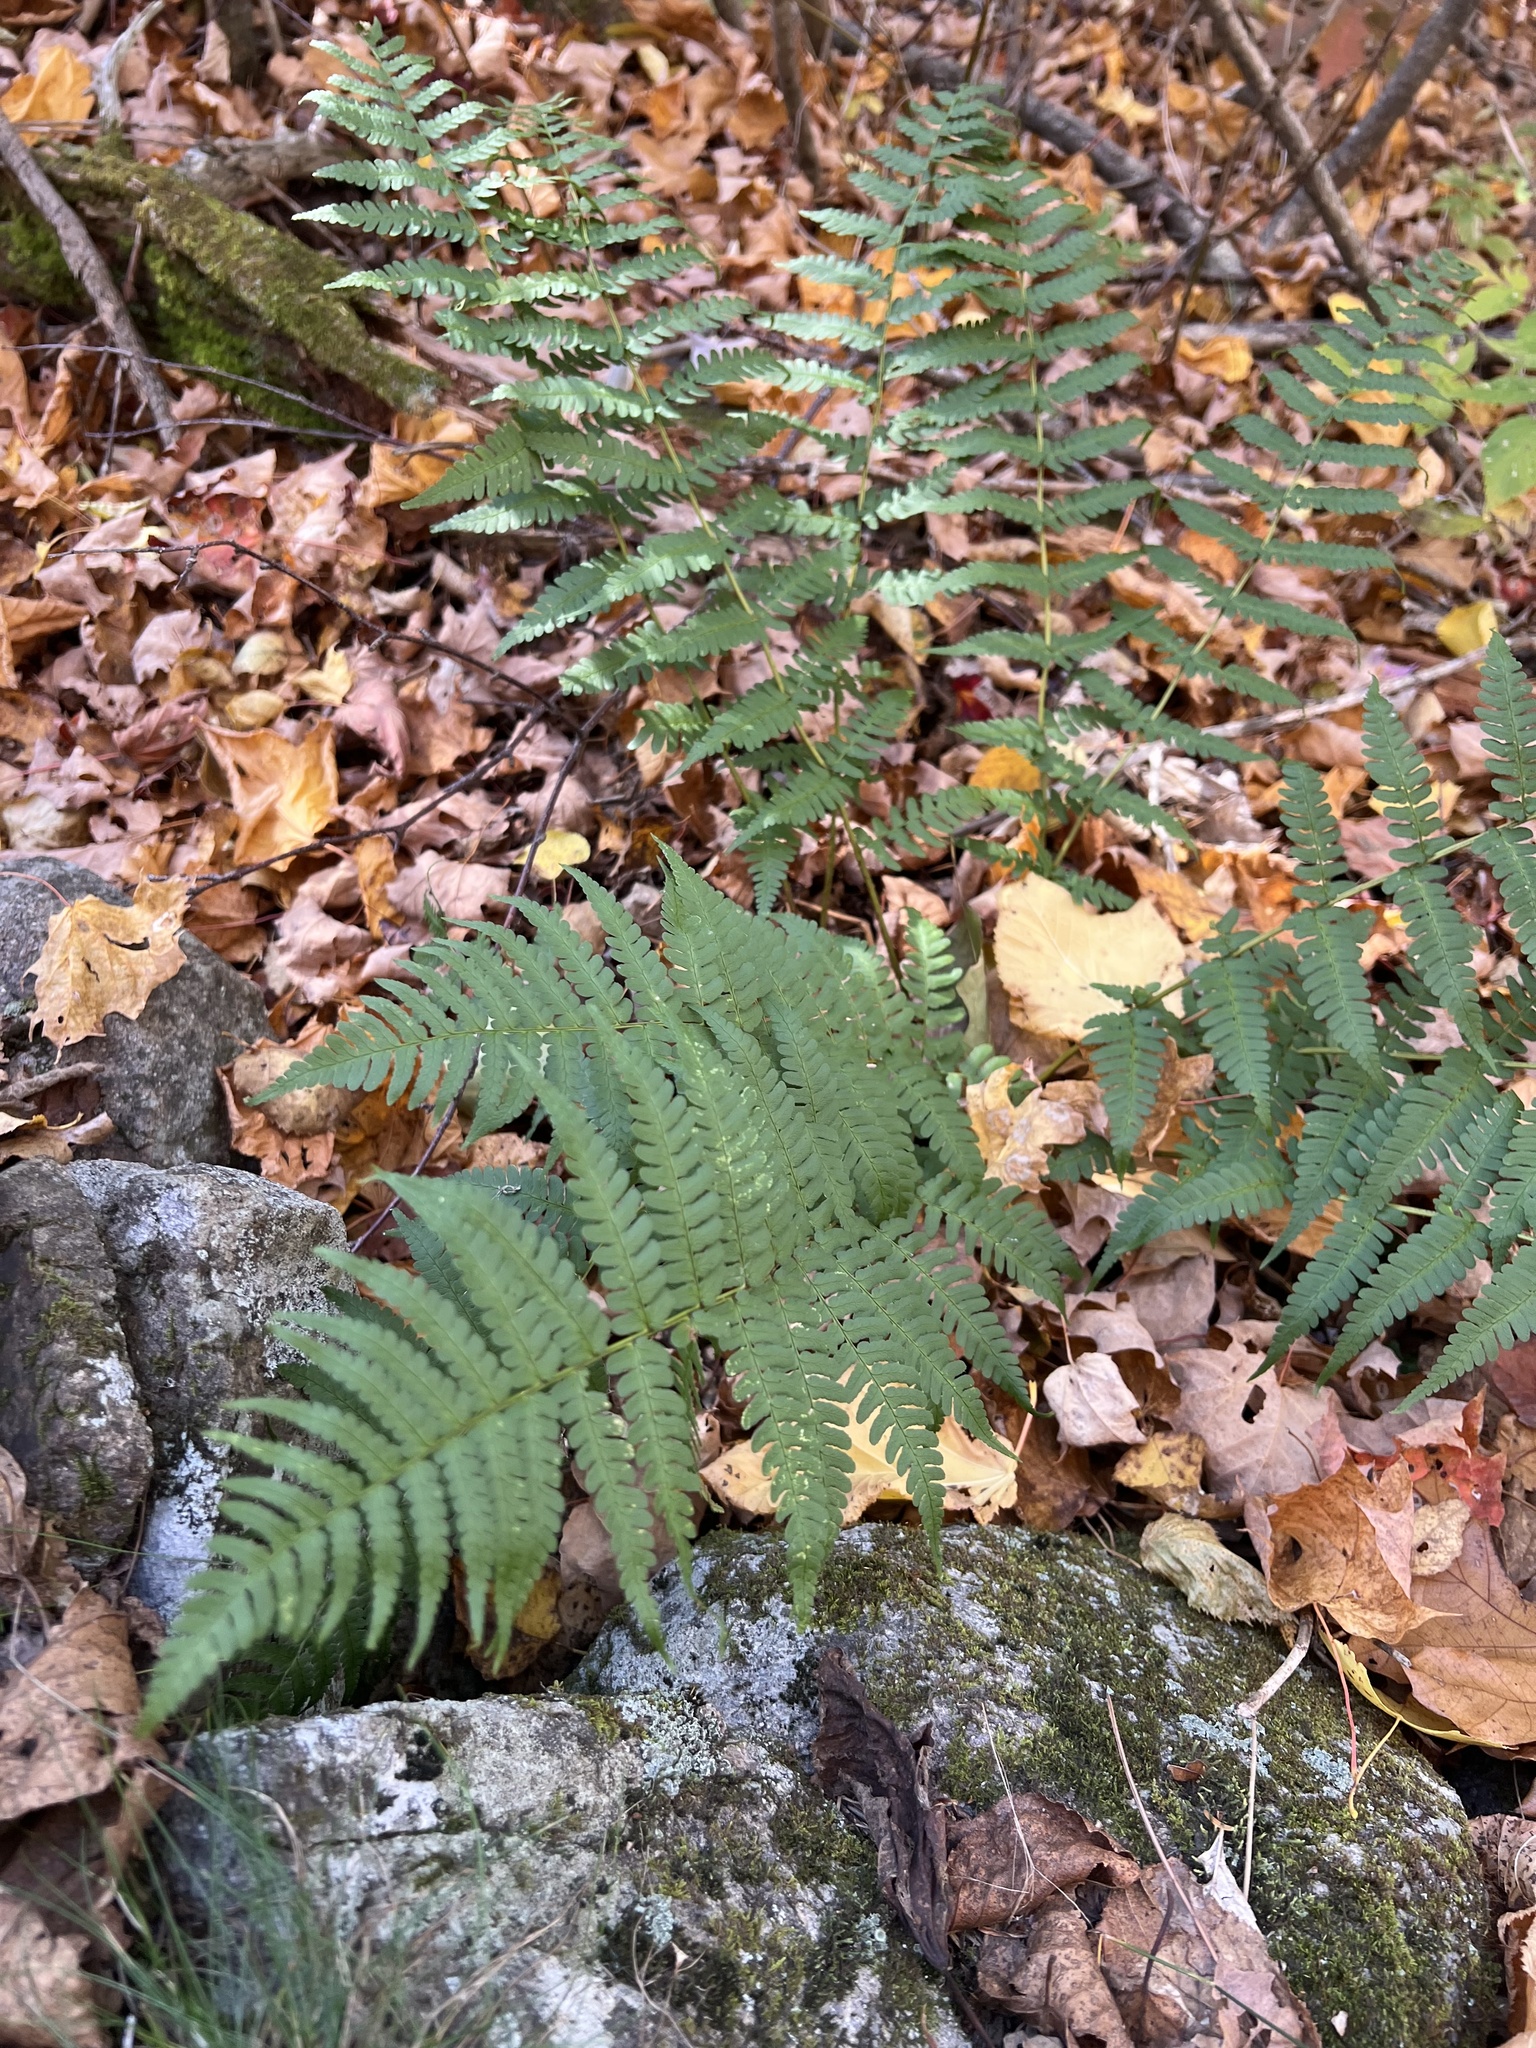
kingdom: Plantae
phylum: Tracheophyta
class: Polypodiopsida
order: Polypodiales
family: Dryopteridaceae
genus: Dryopteris
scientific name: Dryopteris marginalis
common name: Marginal wood fern
